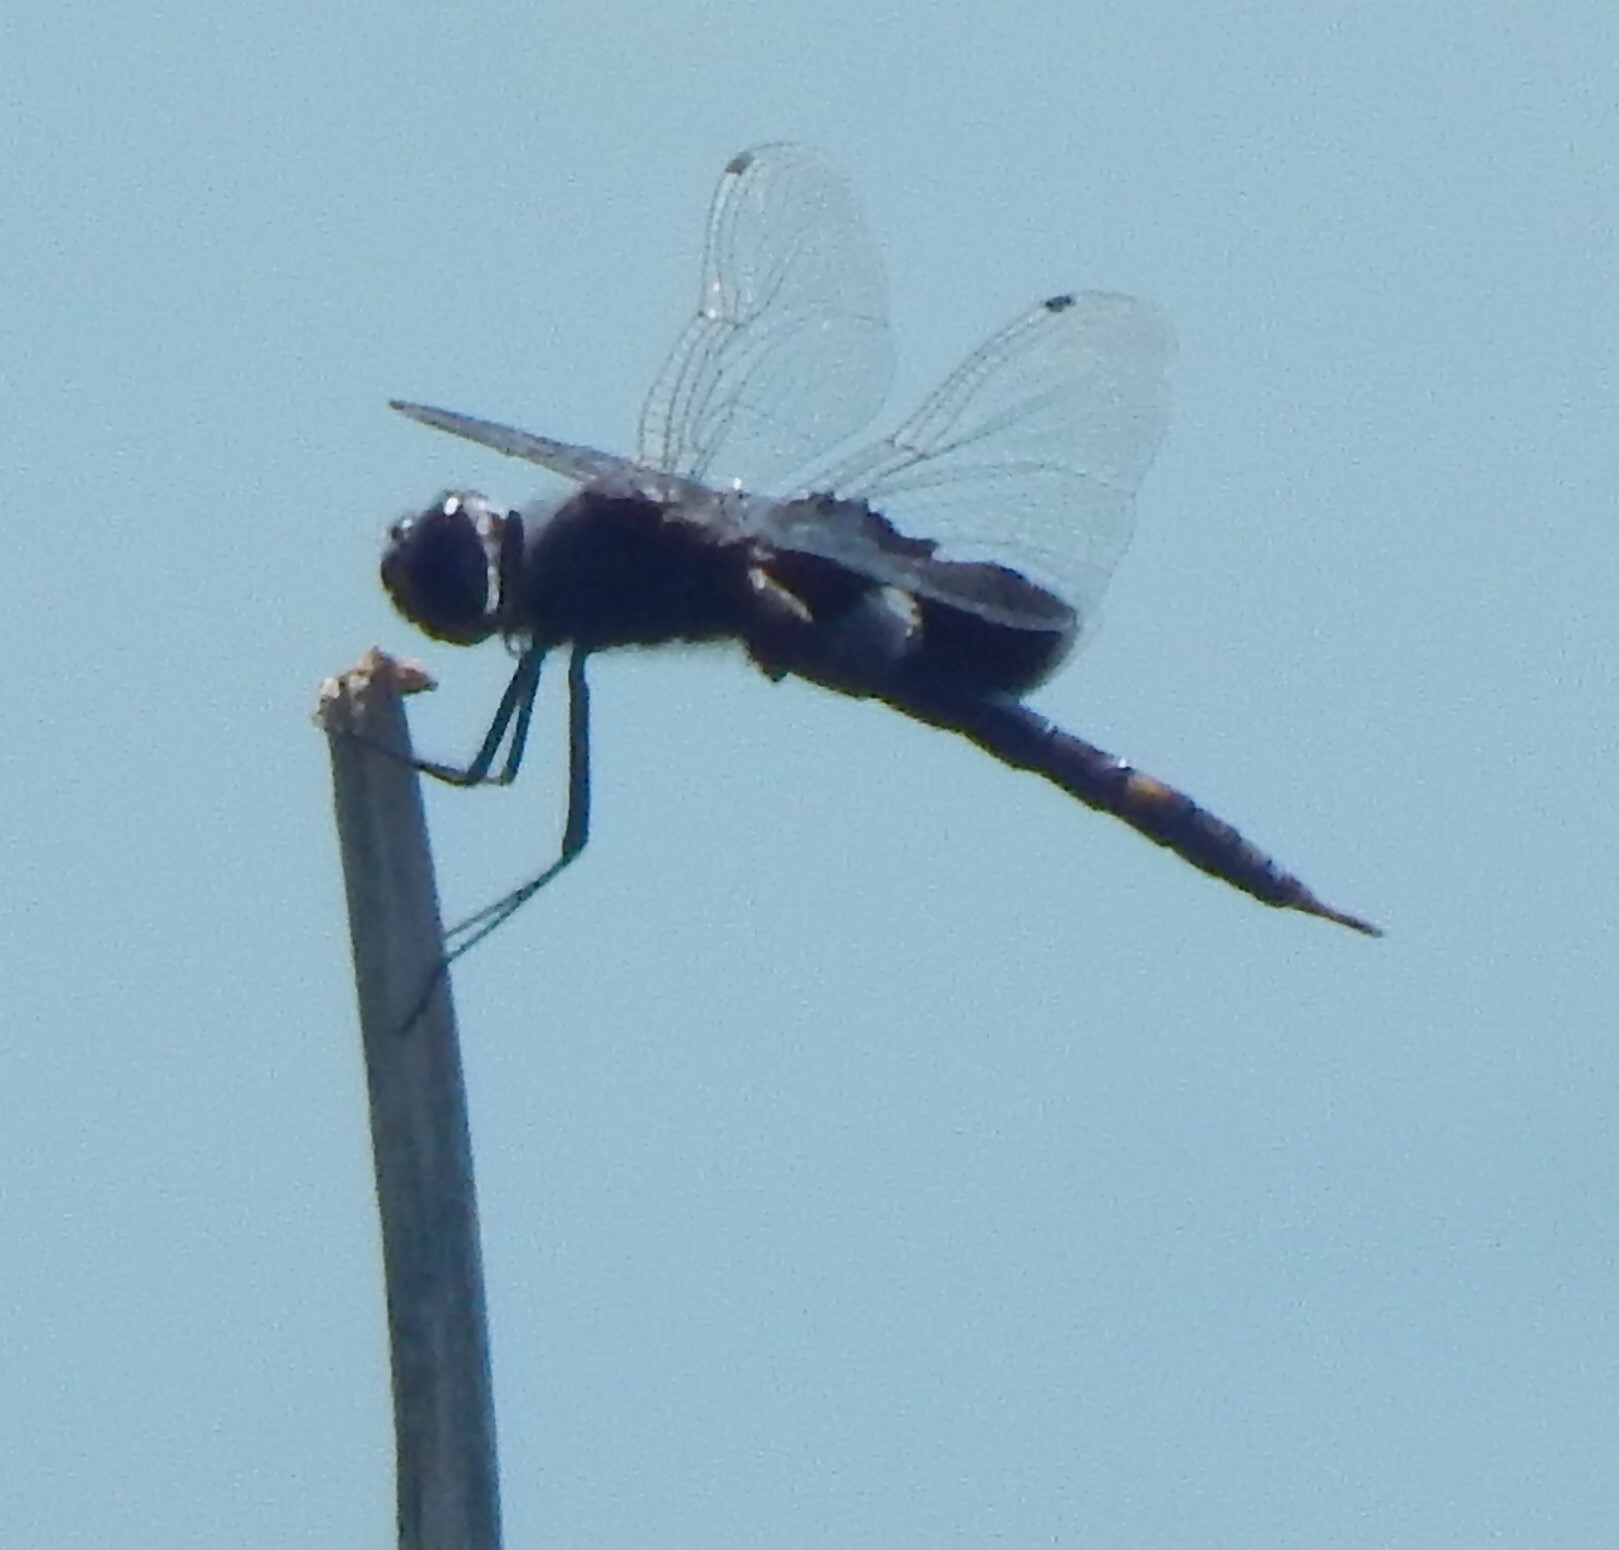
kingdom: Animalia
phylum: Arthropoda
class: Insecta
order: Odonata
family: Libellulidae
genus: Tramea
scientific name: Tramea lacerata
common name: Black saddlebags
